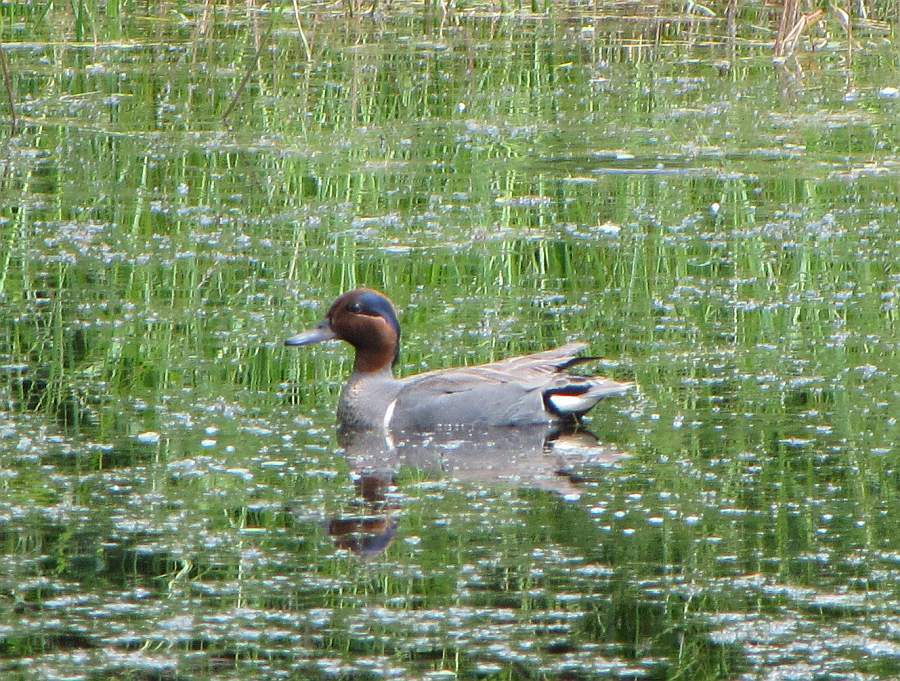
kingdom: Animalia
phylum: Chordata
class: Aves
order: Anseriformes
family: Anatidae
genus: Anas
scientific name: Anas crecca
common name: Eurasian teal
